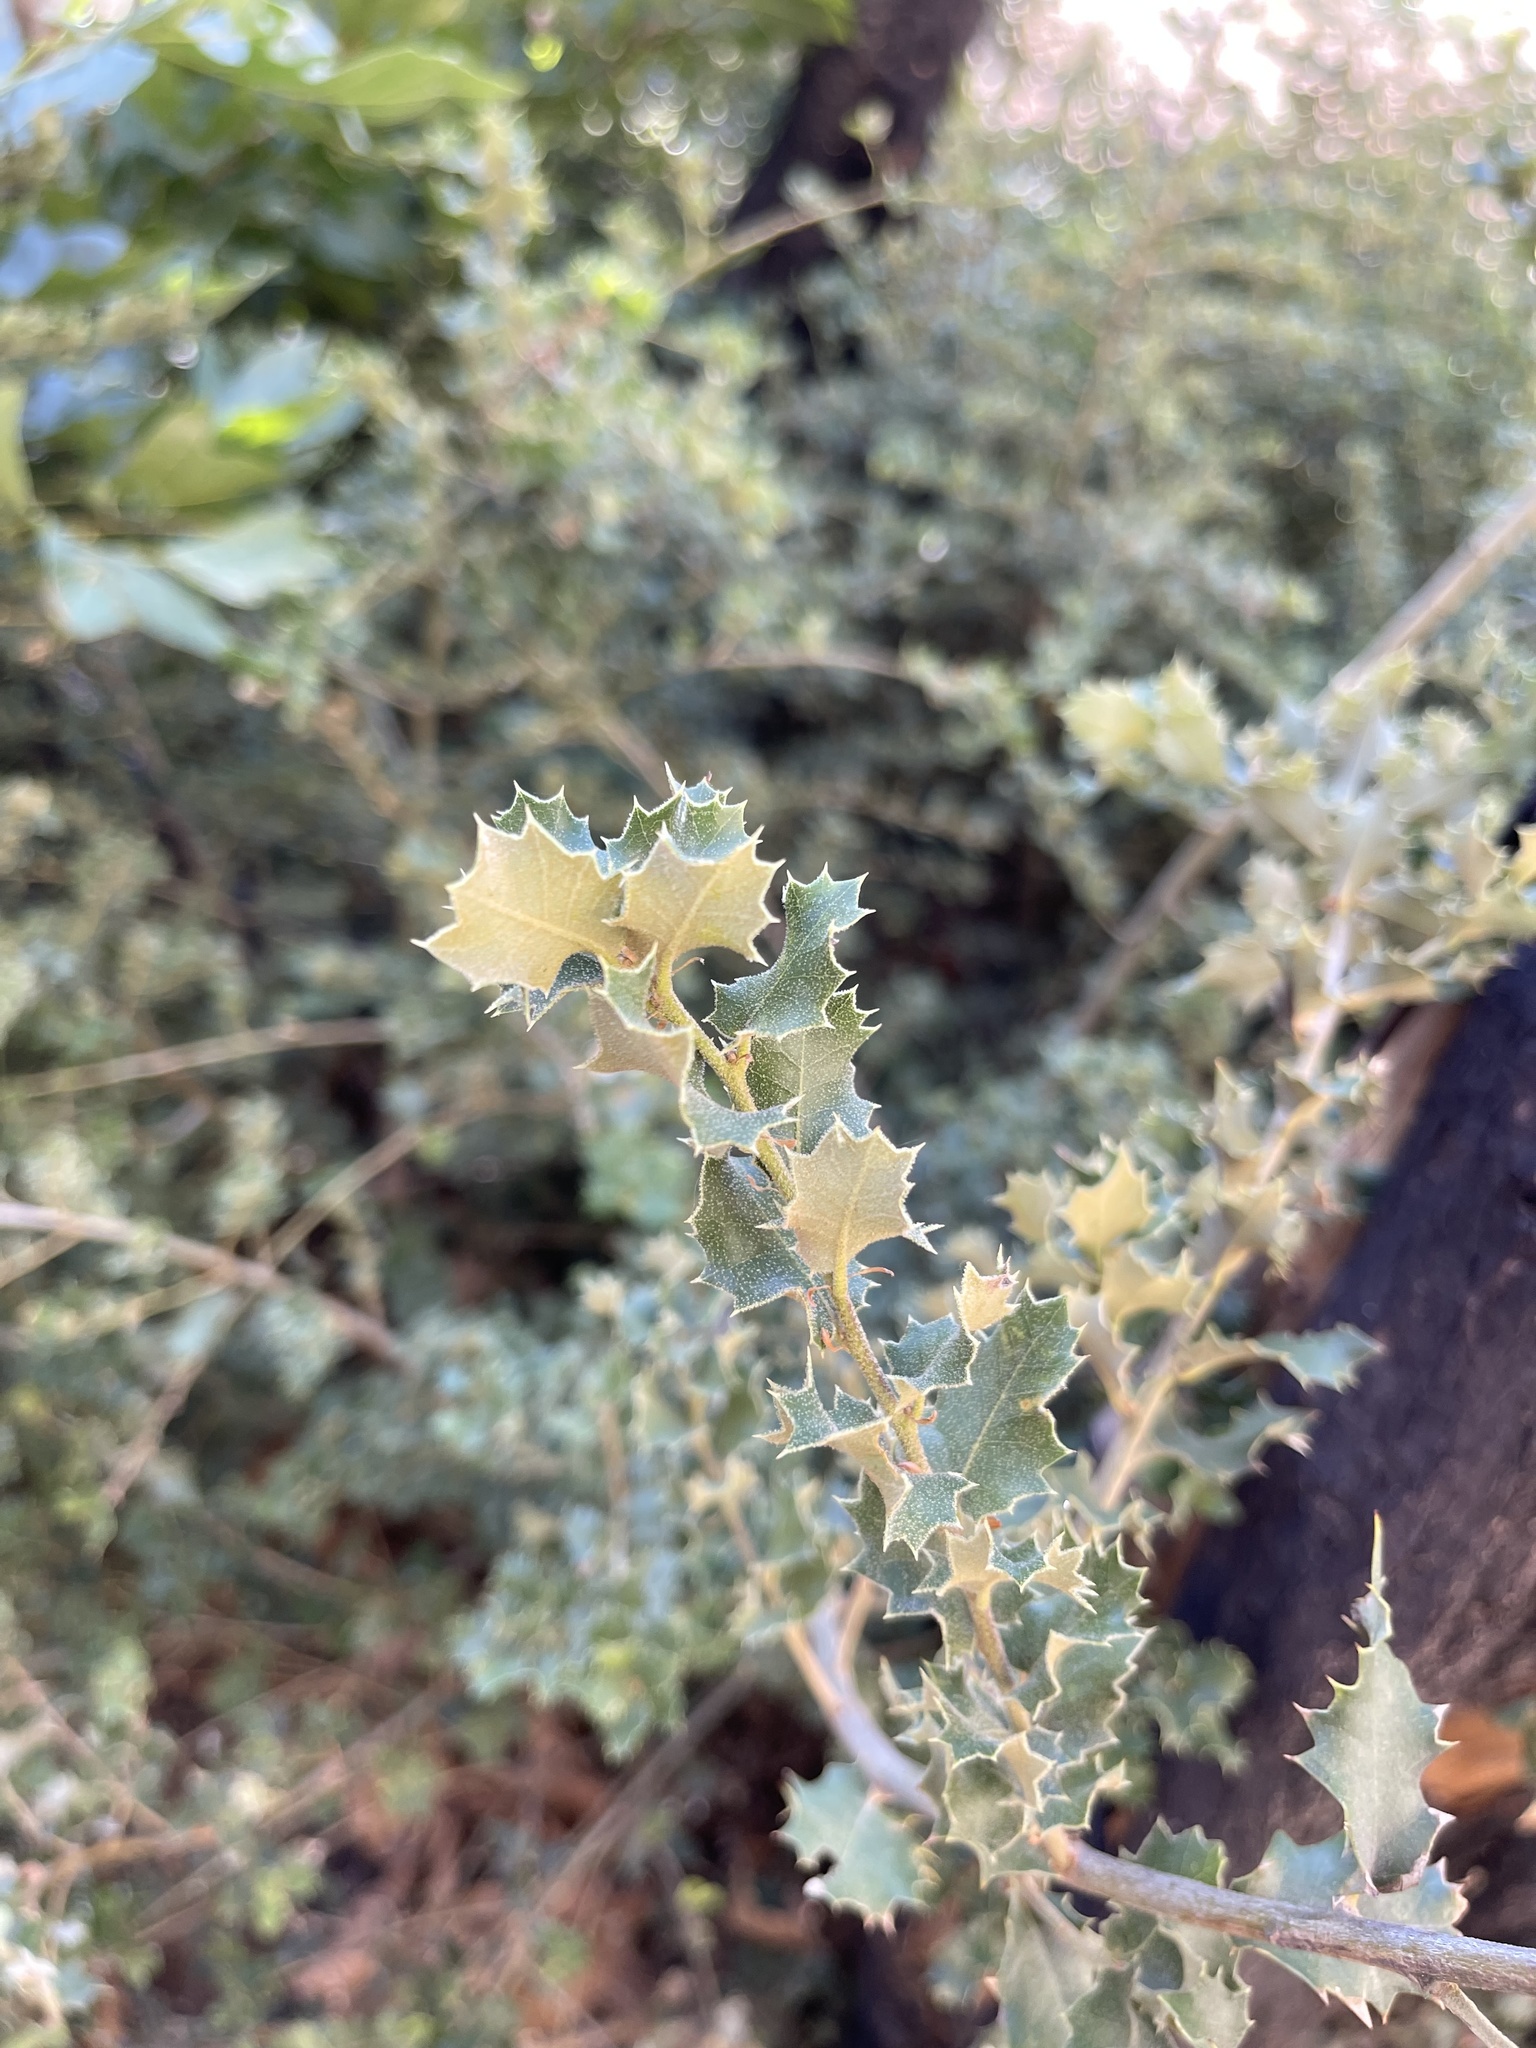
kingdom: Plantae
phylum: Tracheophyta
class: Magnoliopsida
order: Fagales
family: Fagaceae
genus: Quercus
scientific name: Quercus chrysolepis
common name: Canyon live oak
